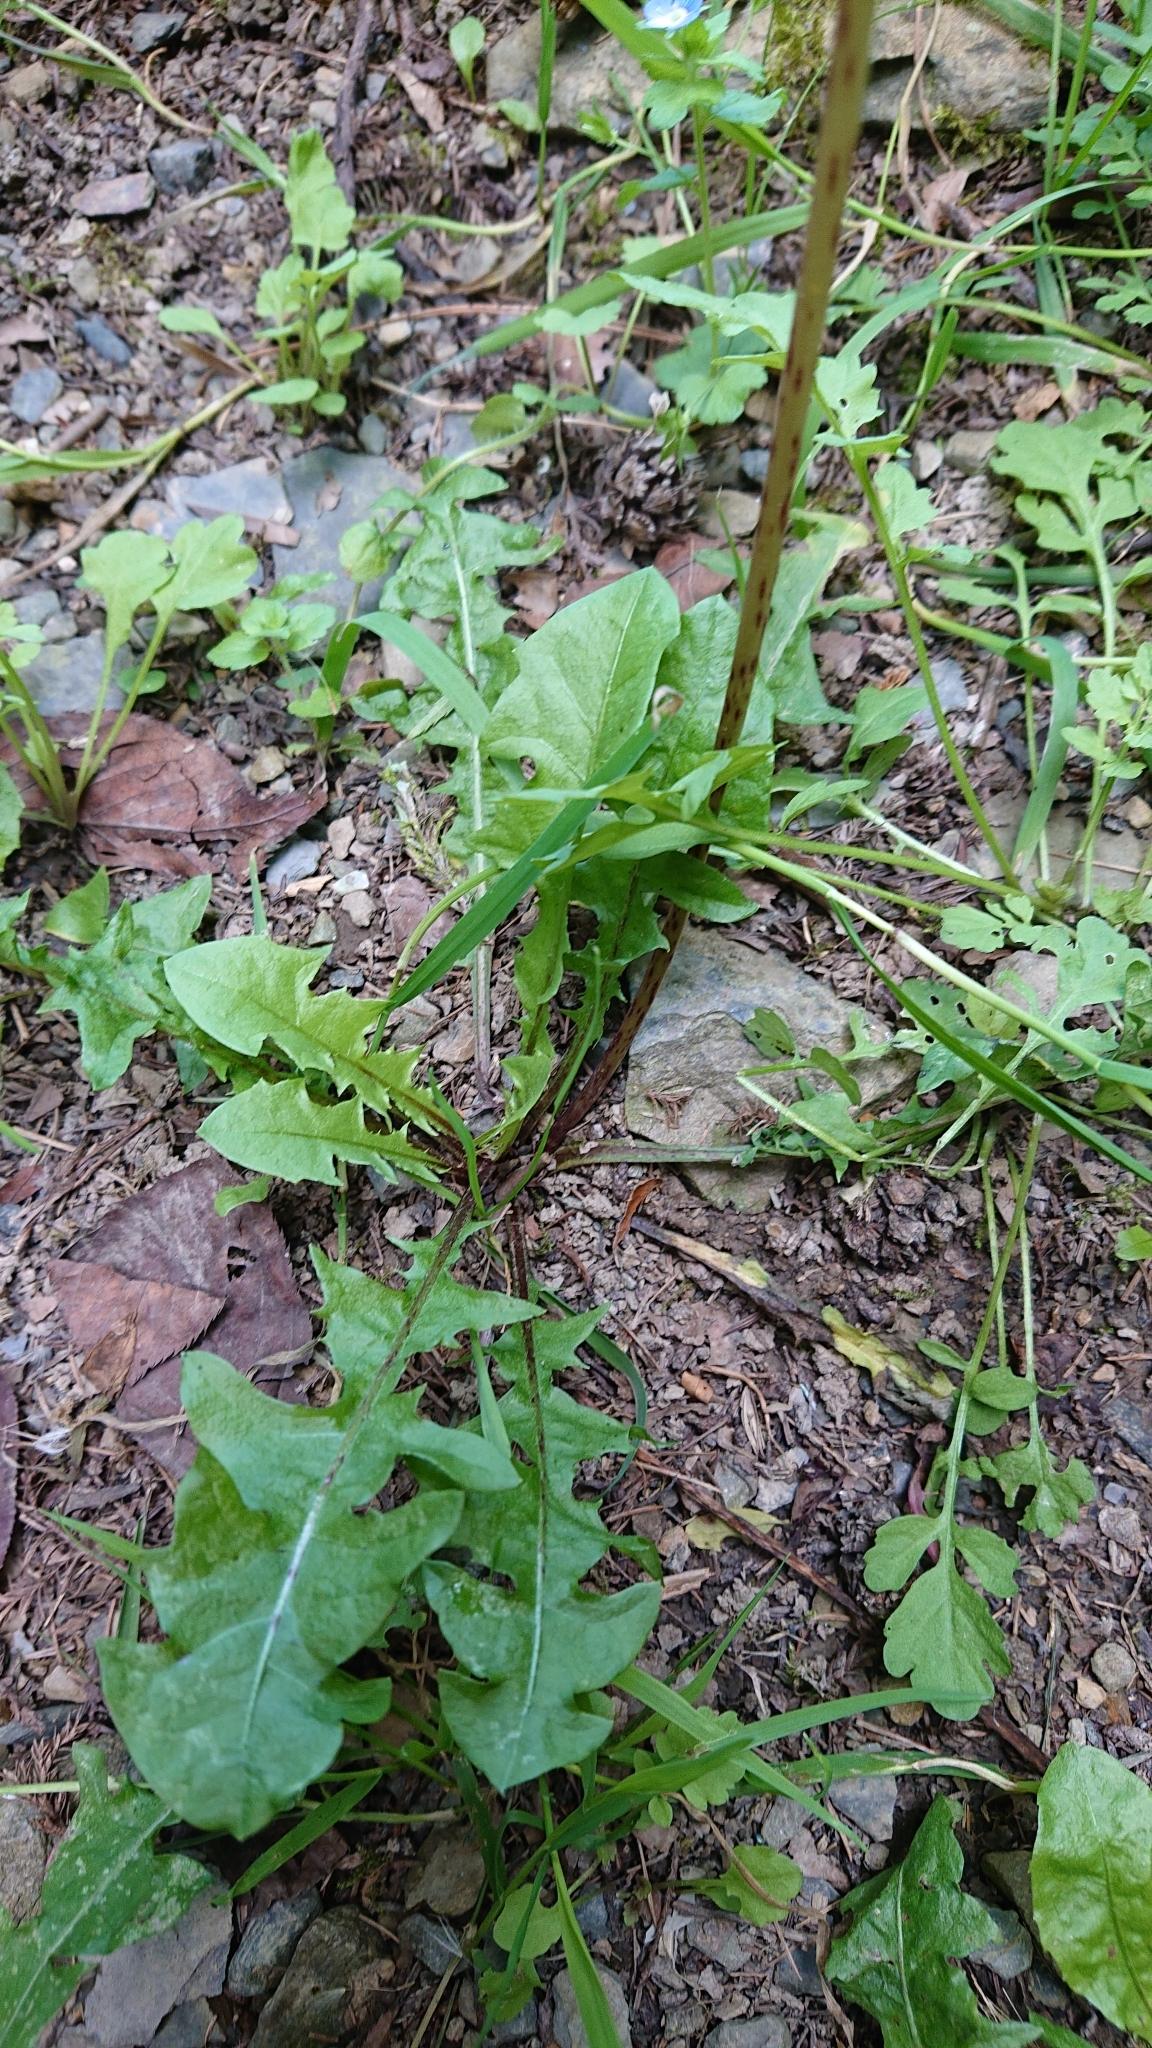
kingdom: Plantae
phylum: Tracheophyta
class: Magnoliopsida
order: Asterales
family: Asteraceae
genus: Taraxacum
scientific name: Taraxacum officinale
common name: Common dandelion
